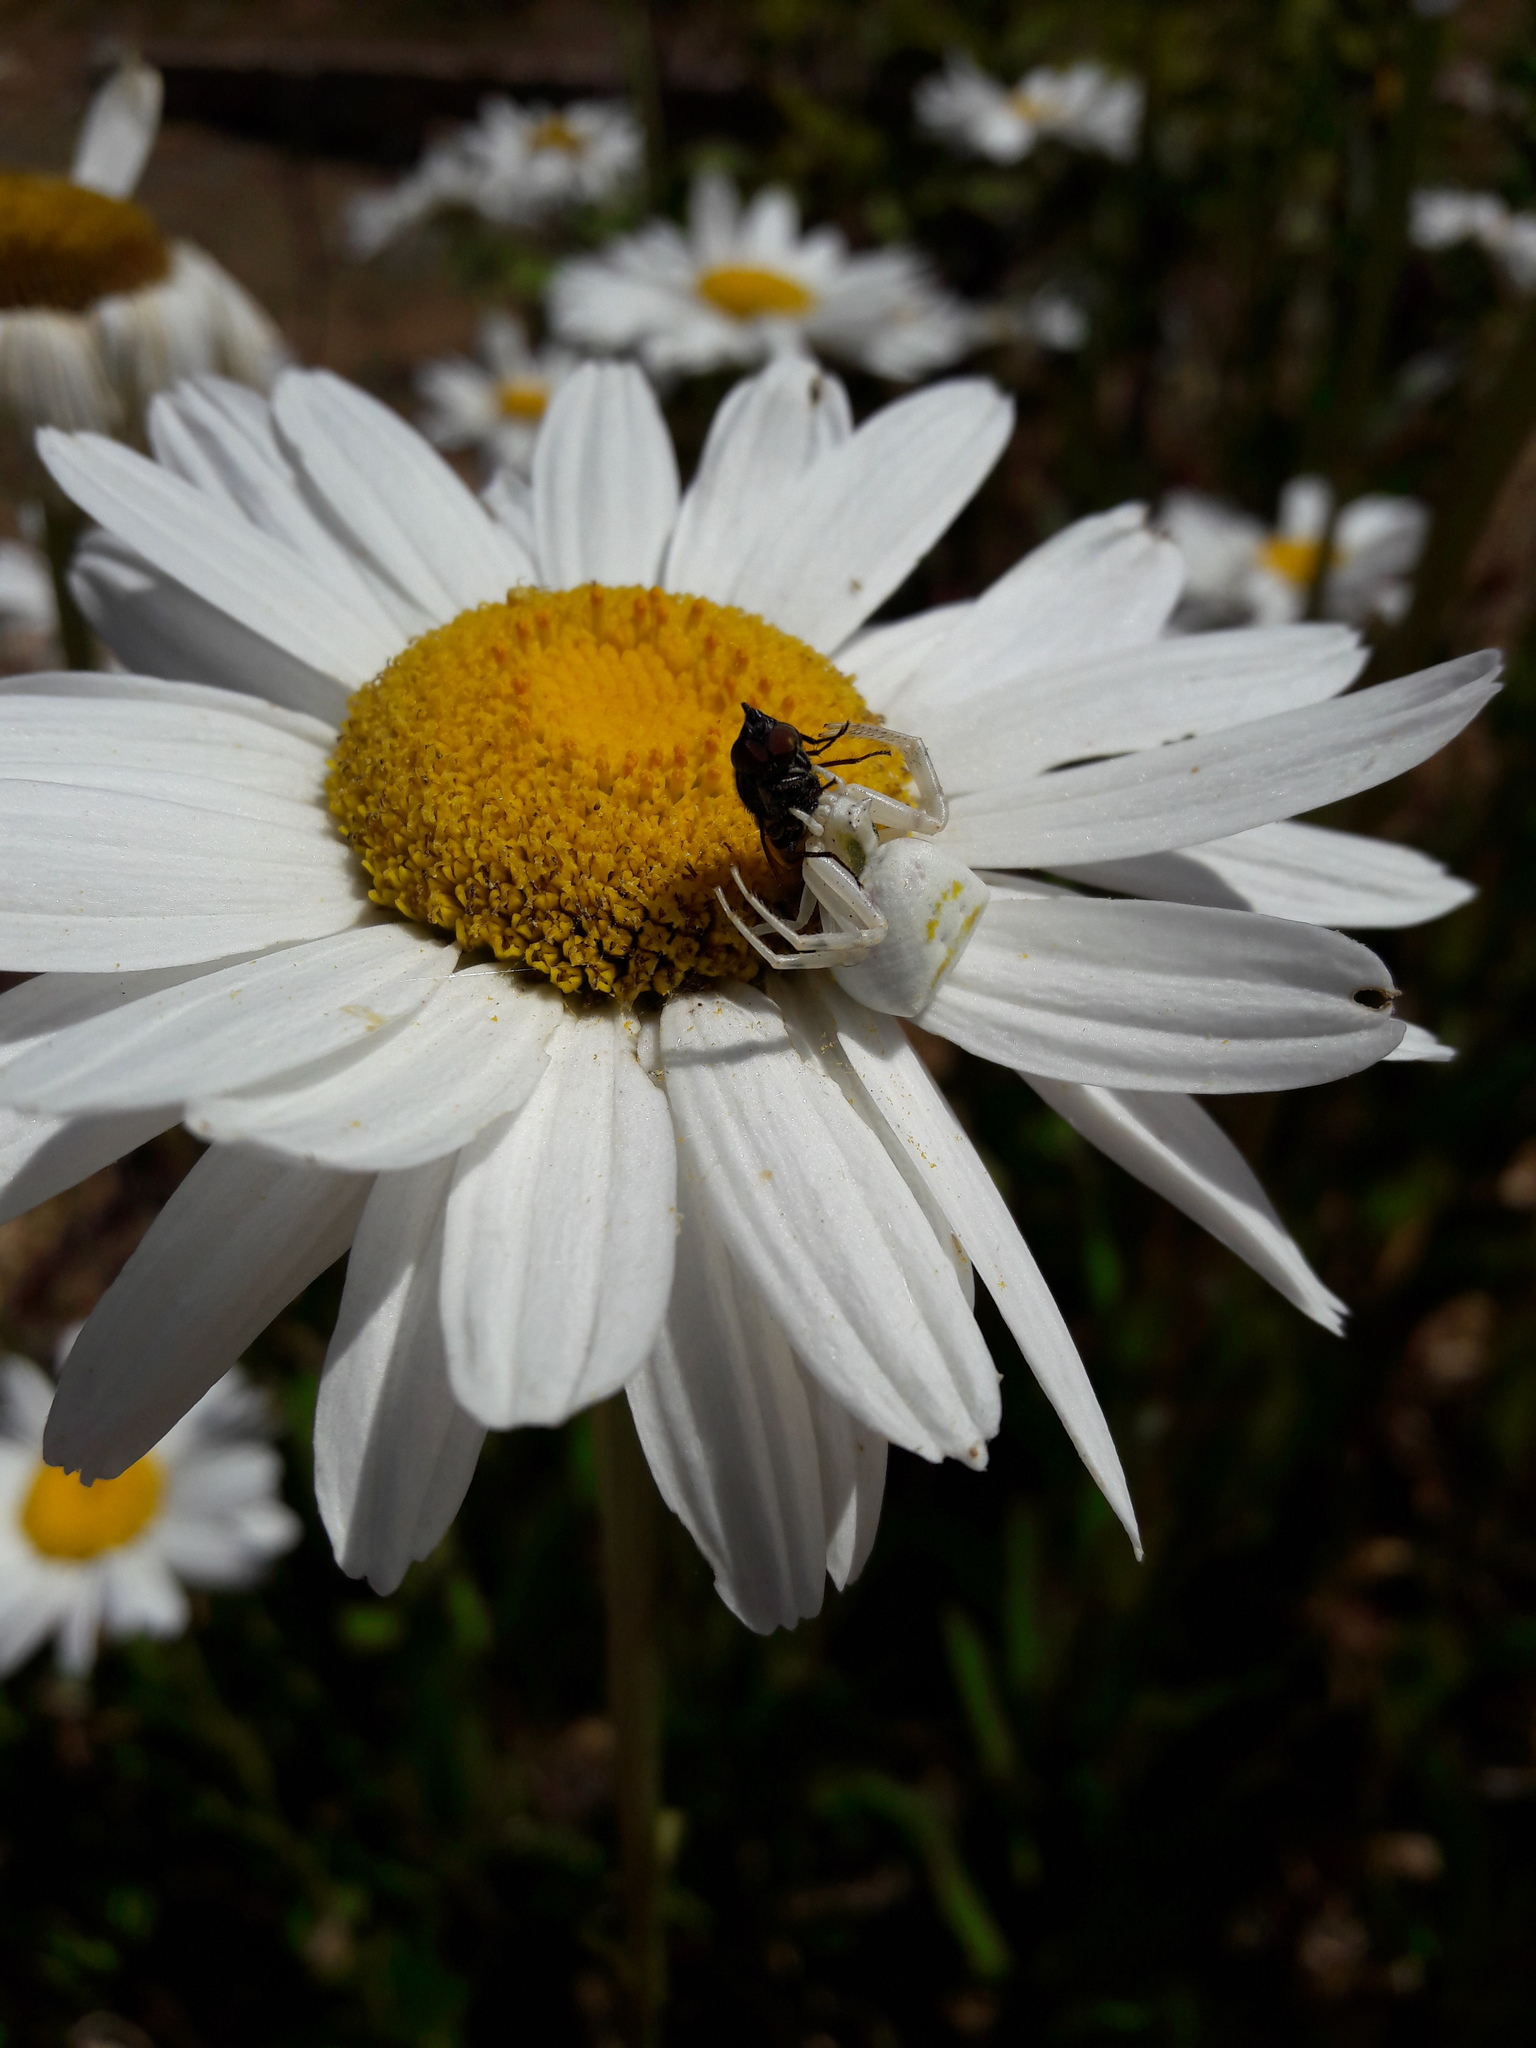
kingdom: Animalia
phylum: Arthropoda
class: Arachnida
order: Araneae
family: Thomisidae
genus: Thomisus
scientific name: Thomisus onustus
